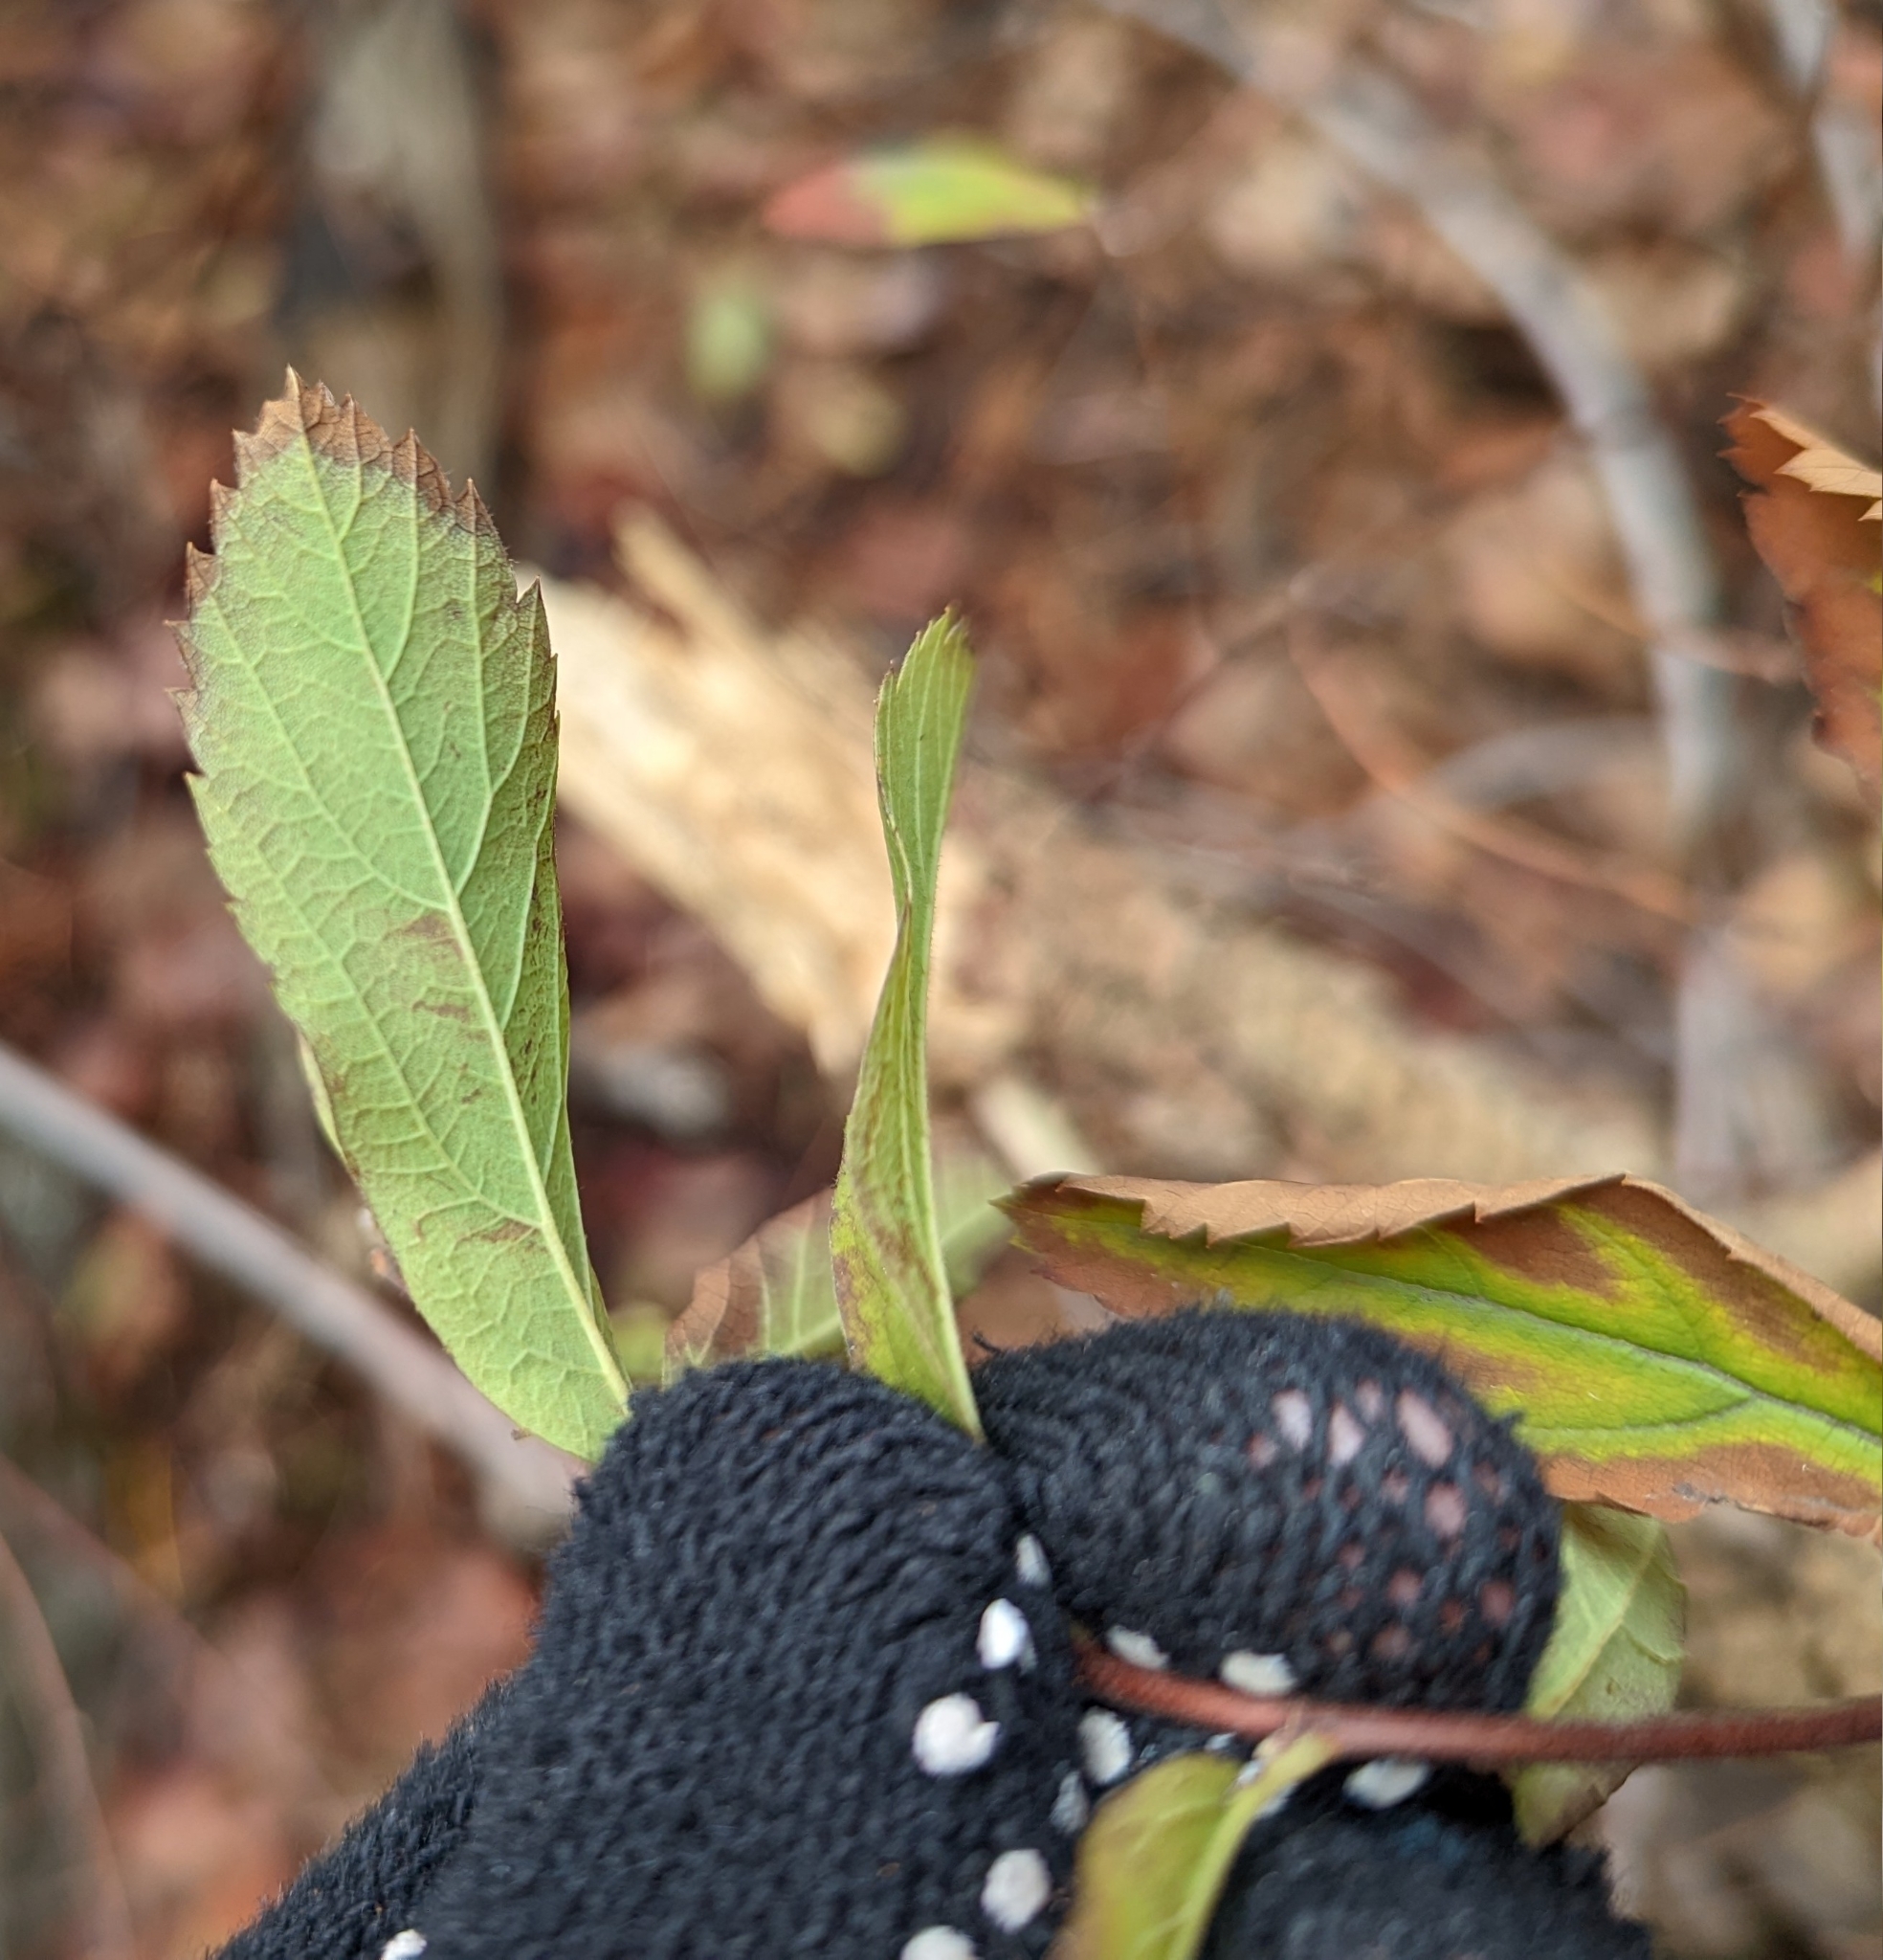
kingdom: Plantae
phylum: Tracheophyta
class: Magnoliopsida
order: Rosales
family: Rosaceae
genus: Spiraea
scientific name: Spiraea douglasii
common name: Steeplebush
